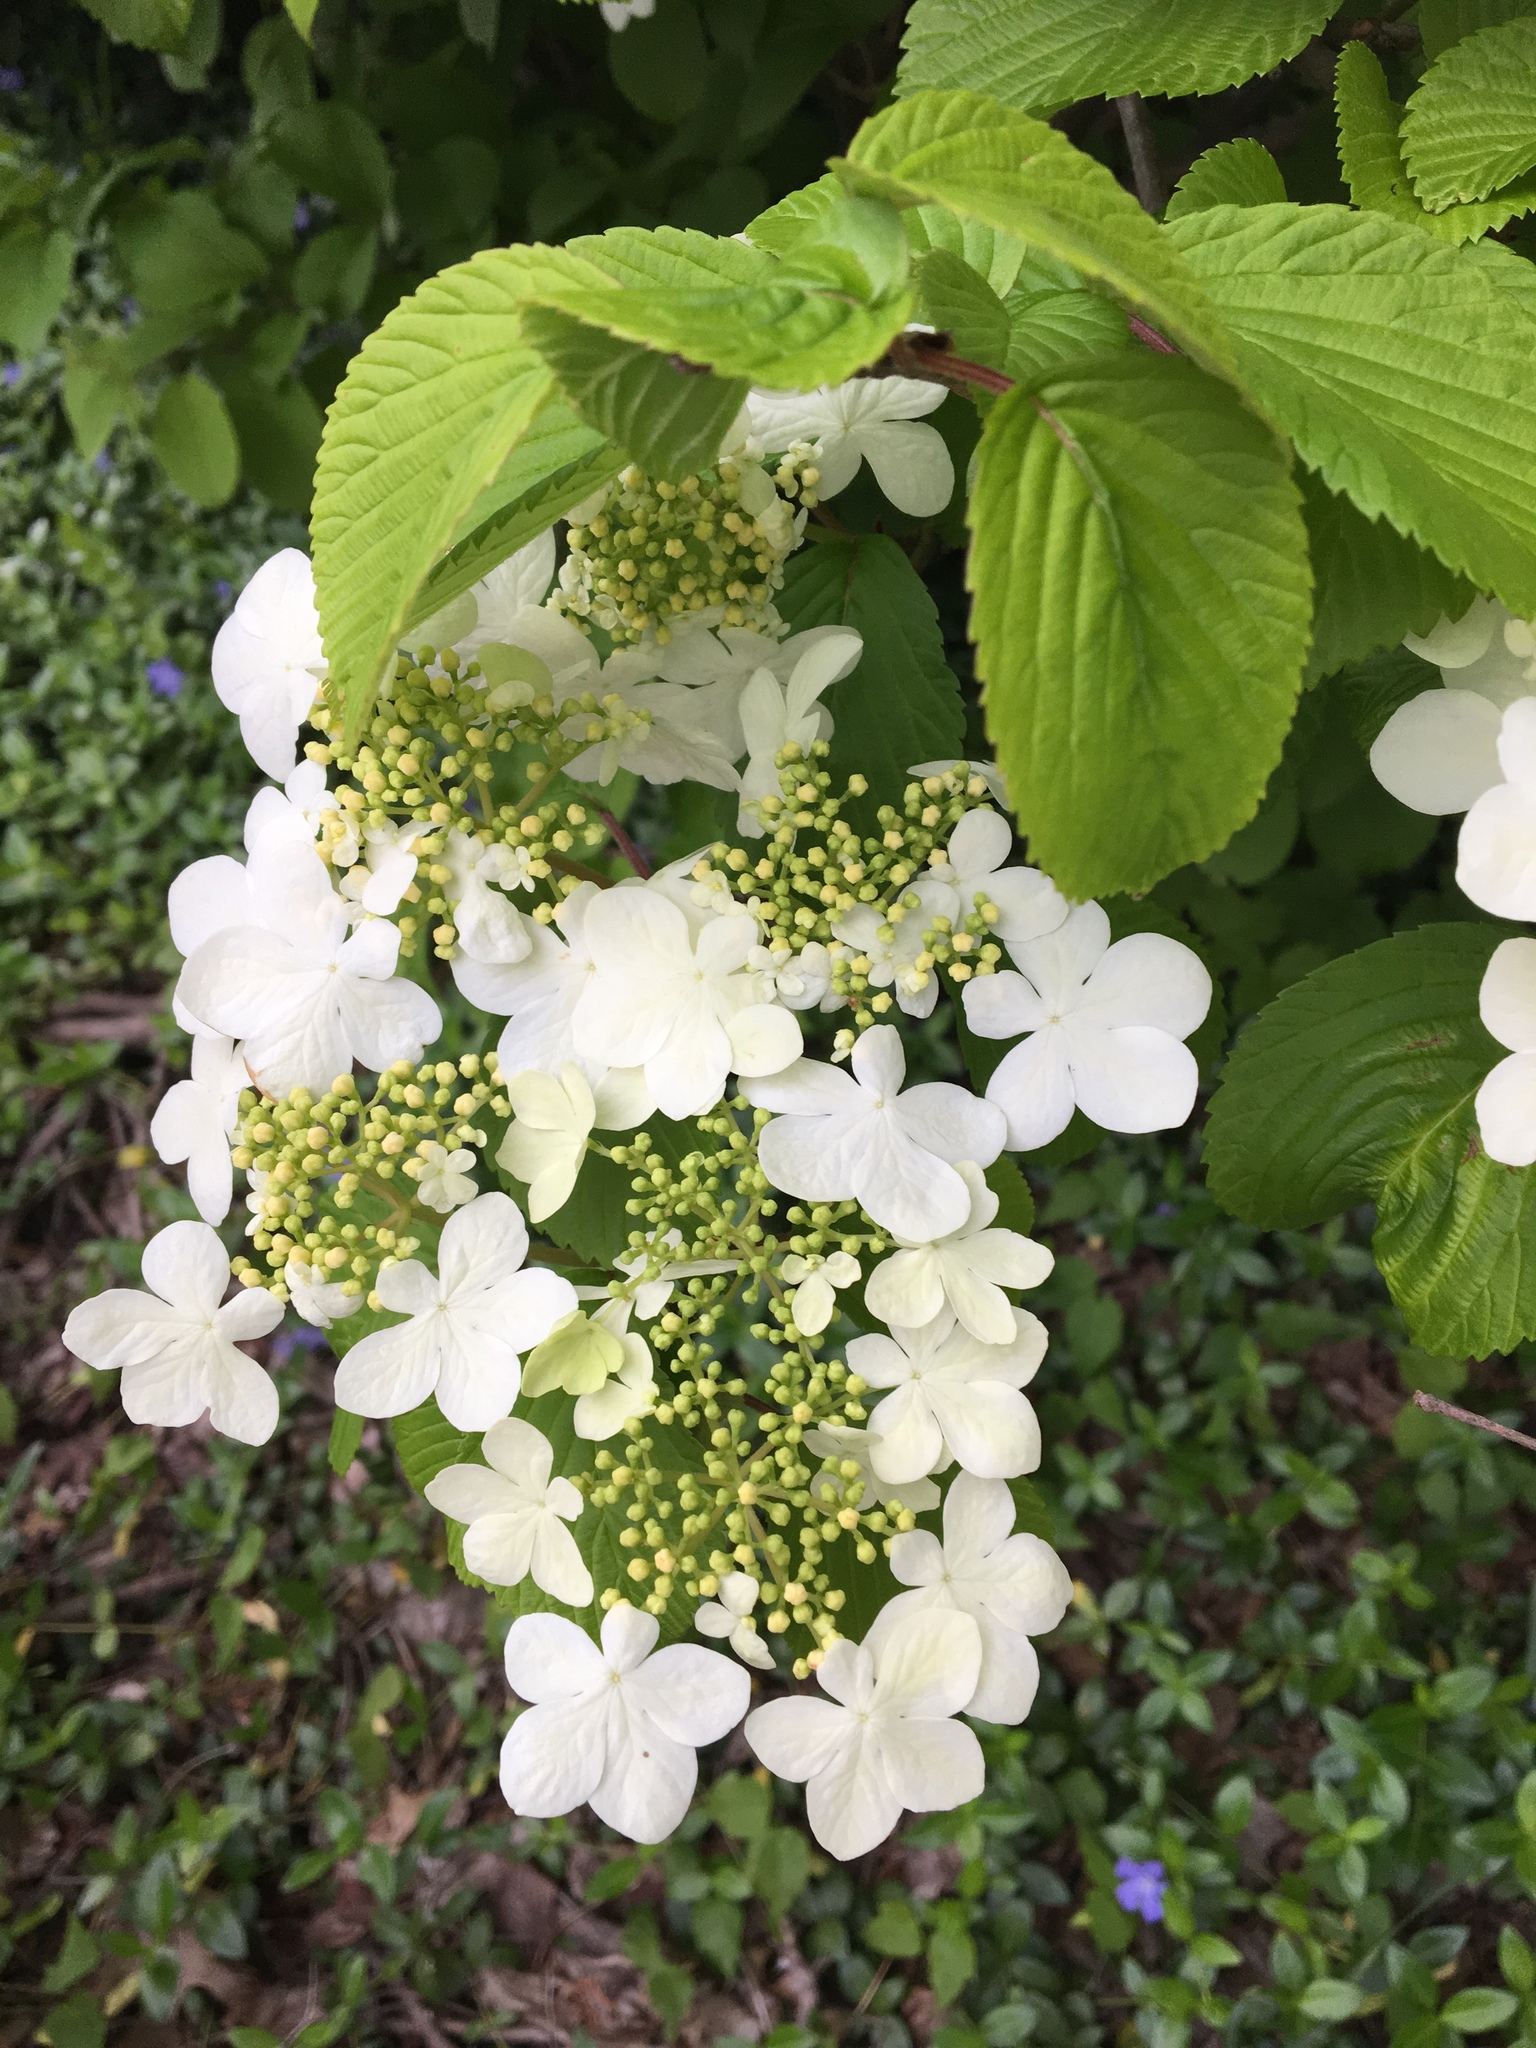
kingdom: Plantae
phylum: Tracheophyta
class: Magnoliopsida
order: Dipsacales
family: Viburnaceae
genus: Viburnum
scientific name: Viburnum plicatum
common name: Japanese snowball
